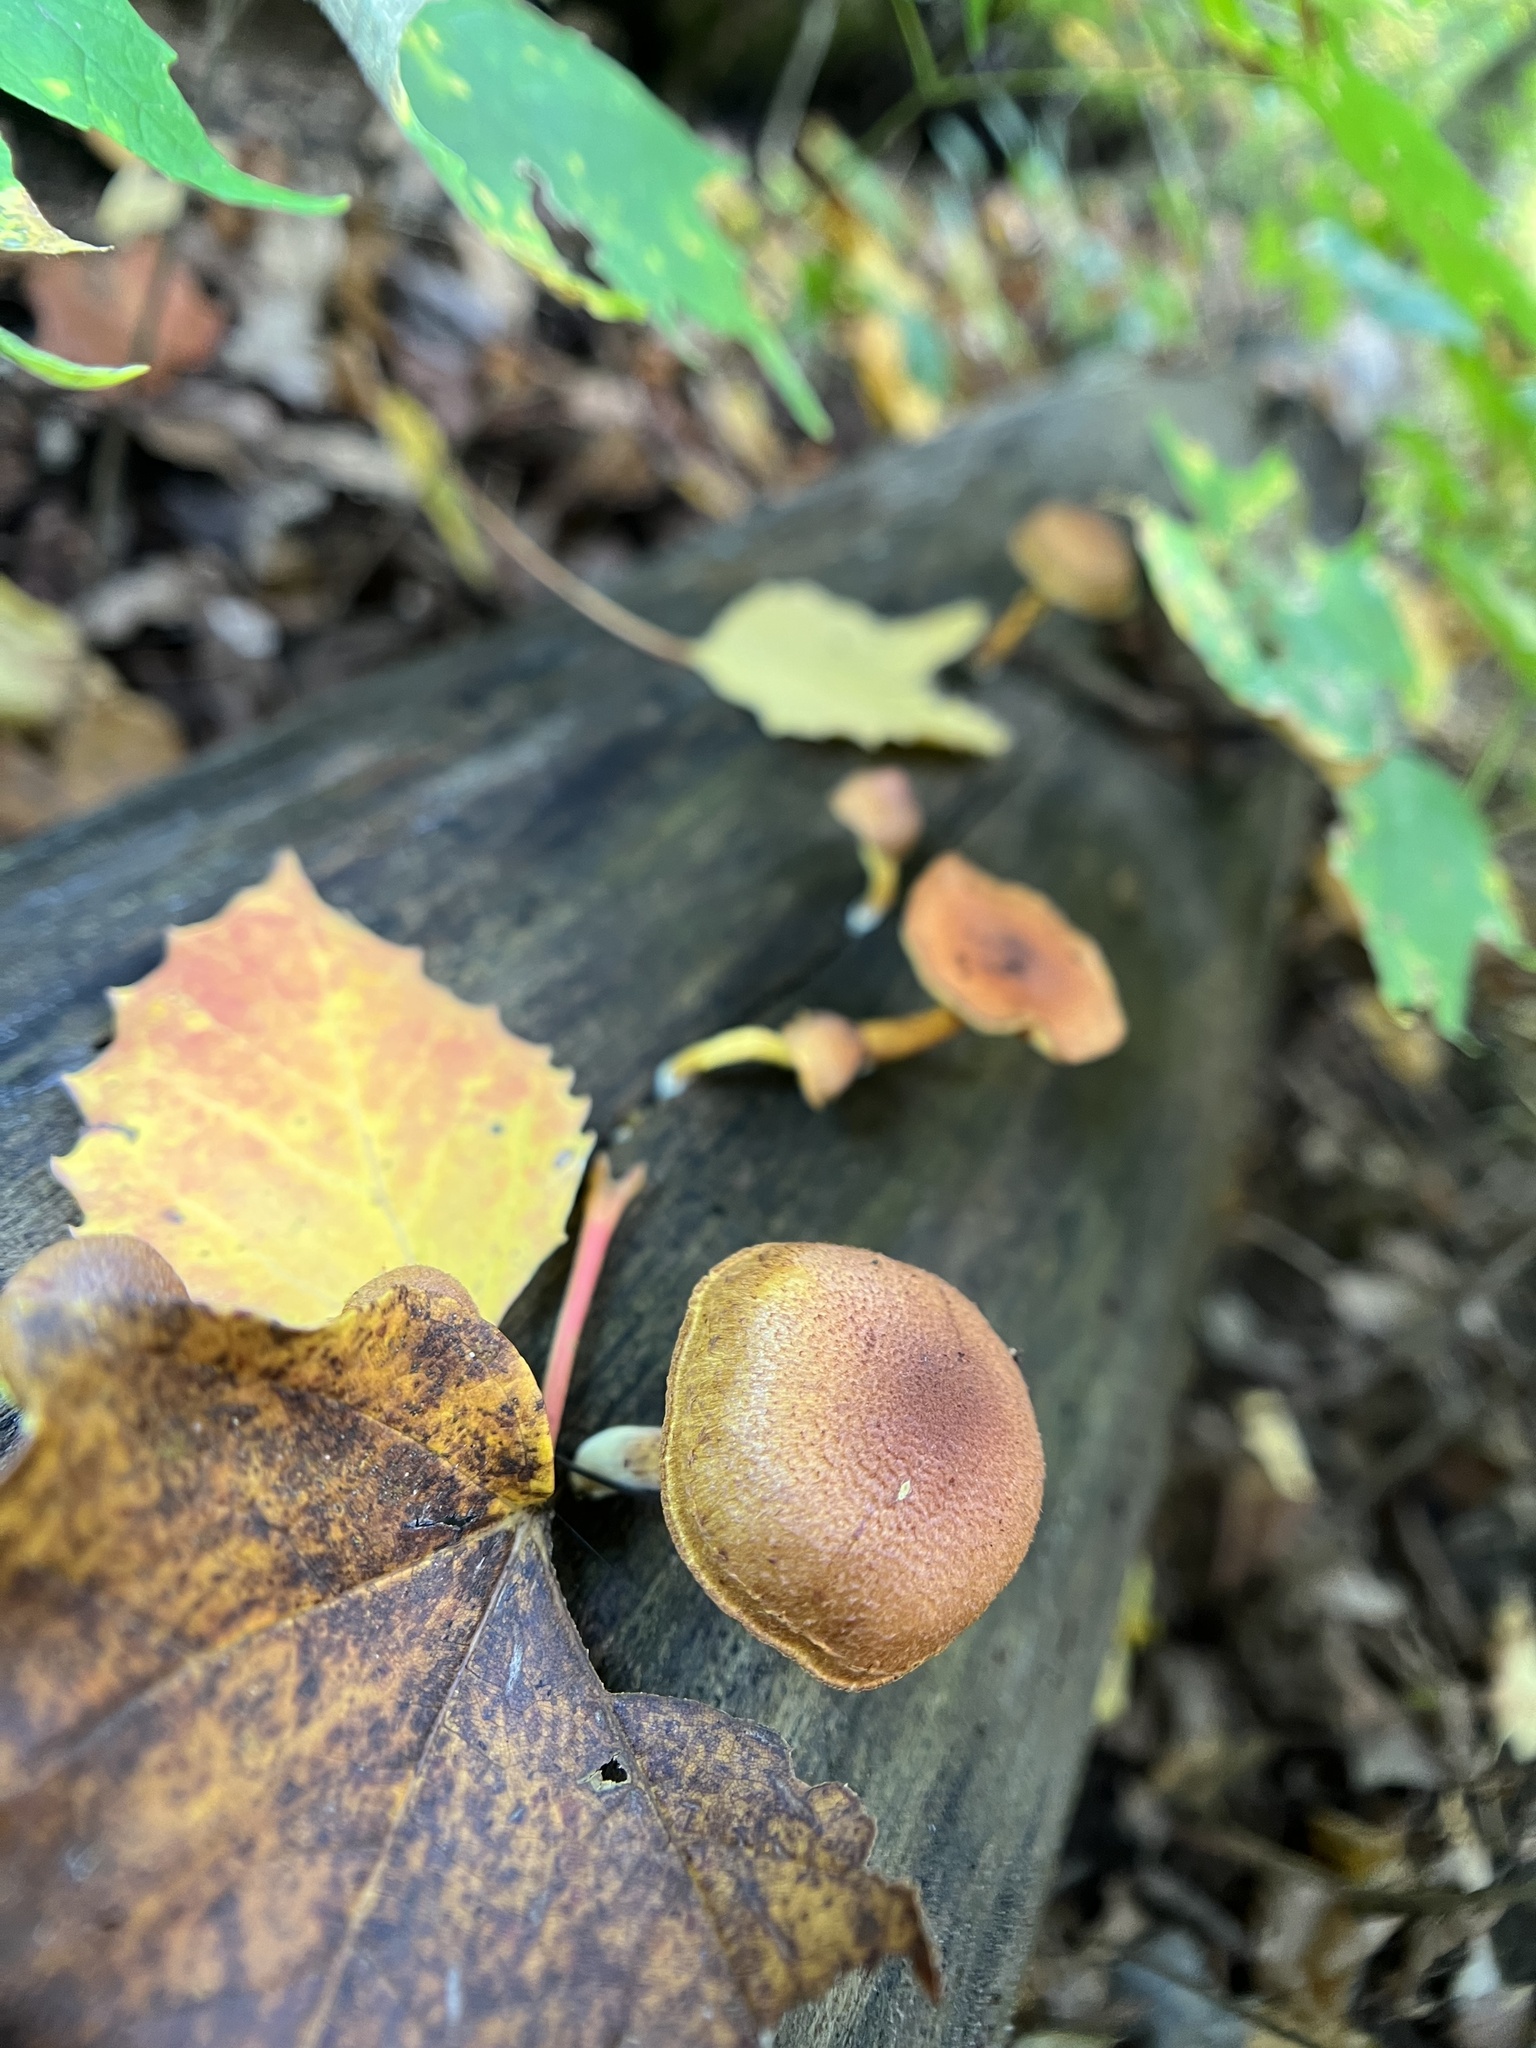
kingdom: Fungi
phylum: Basidiomycota
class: Agaricomycetes
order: Agaricales
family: Strophariaceae
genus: Pholiota
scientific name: Pholiota granulosa
